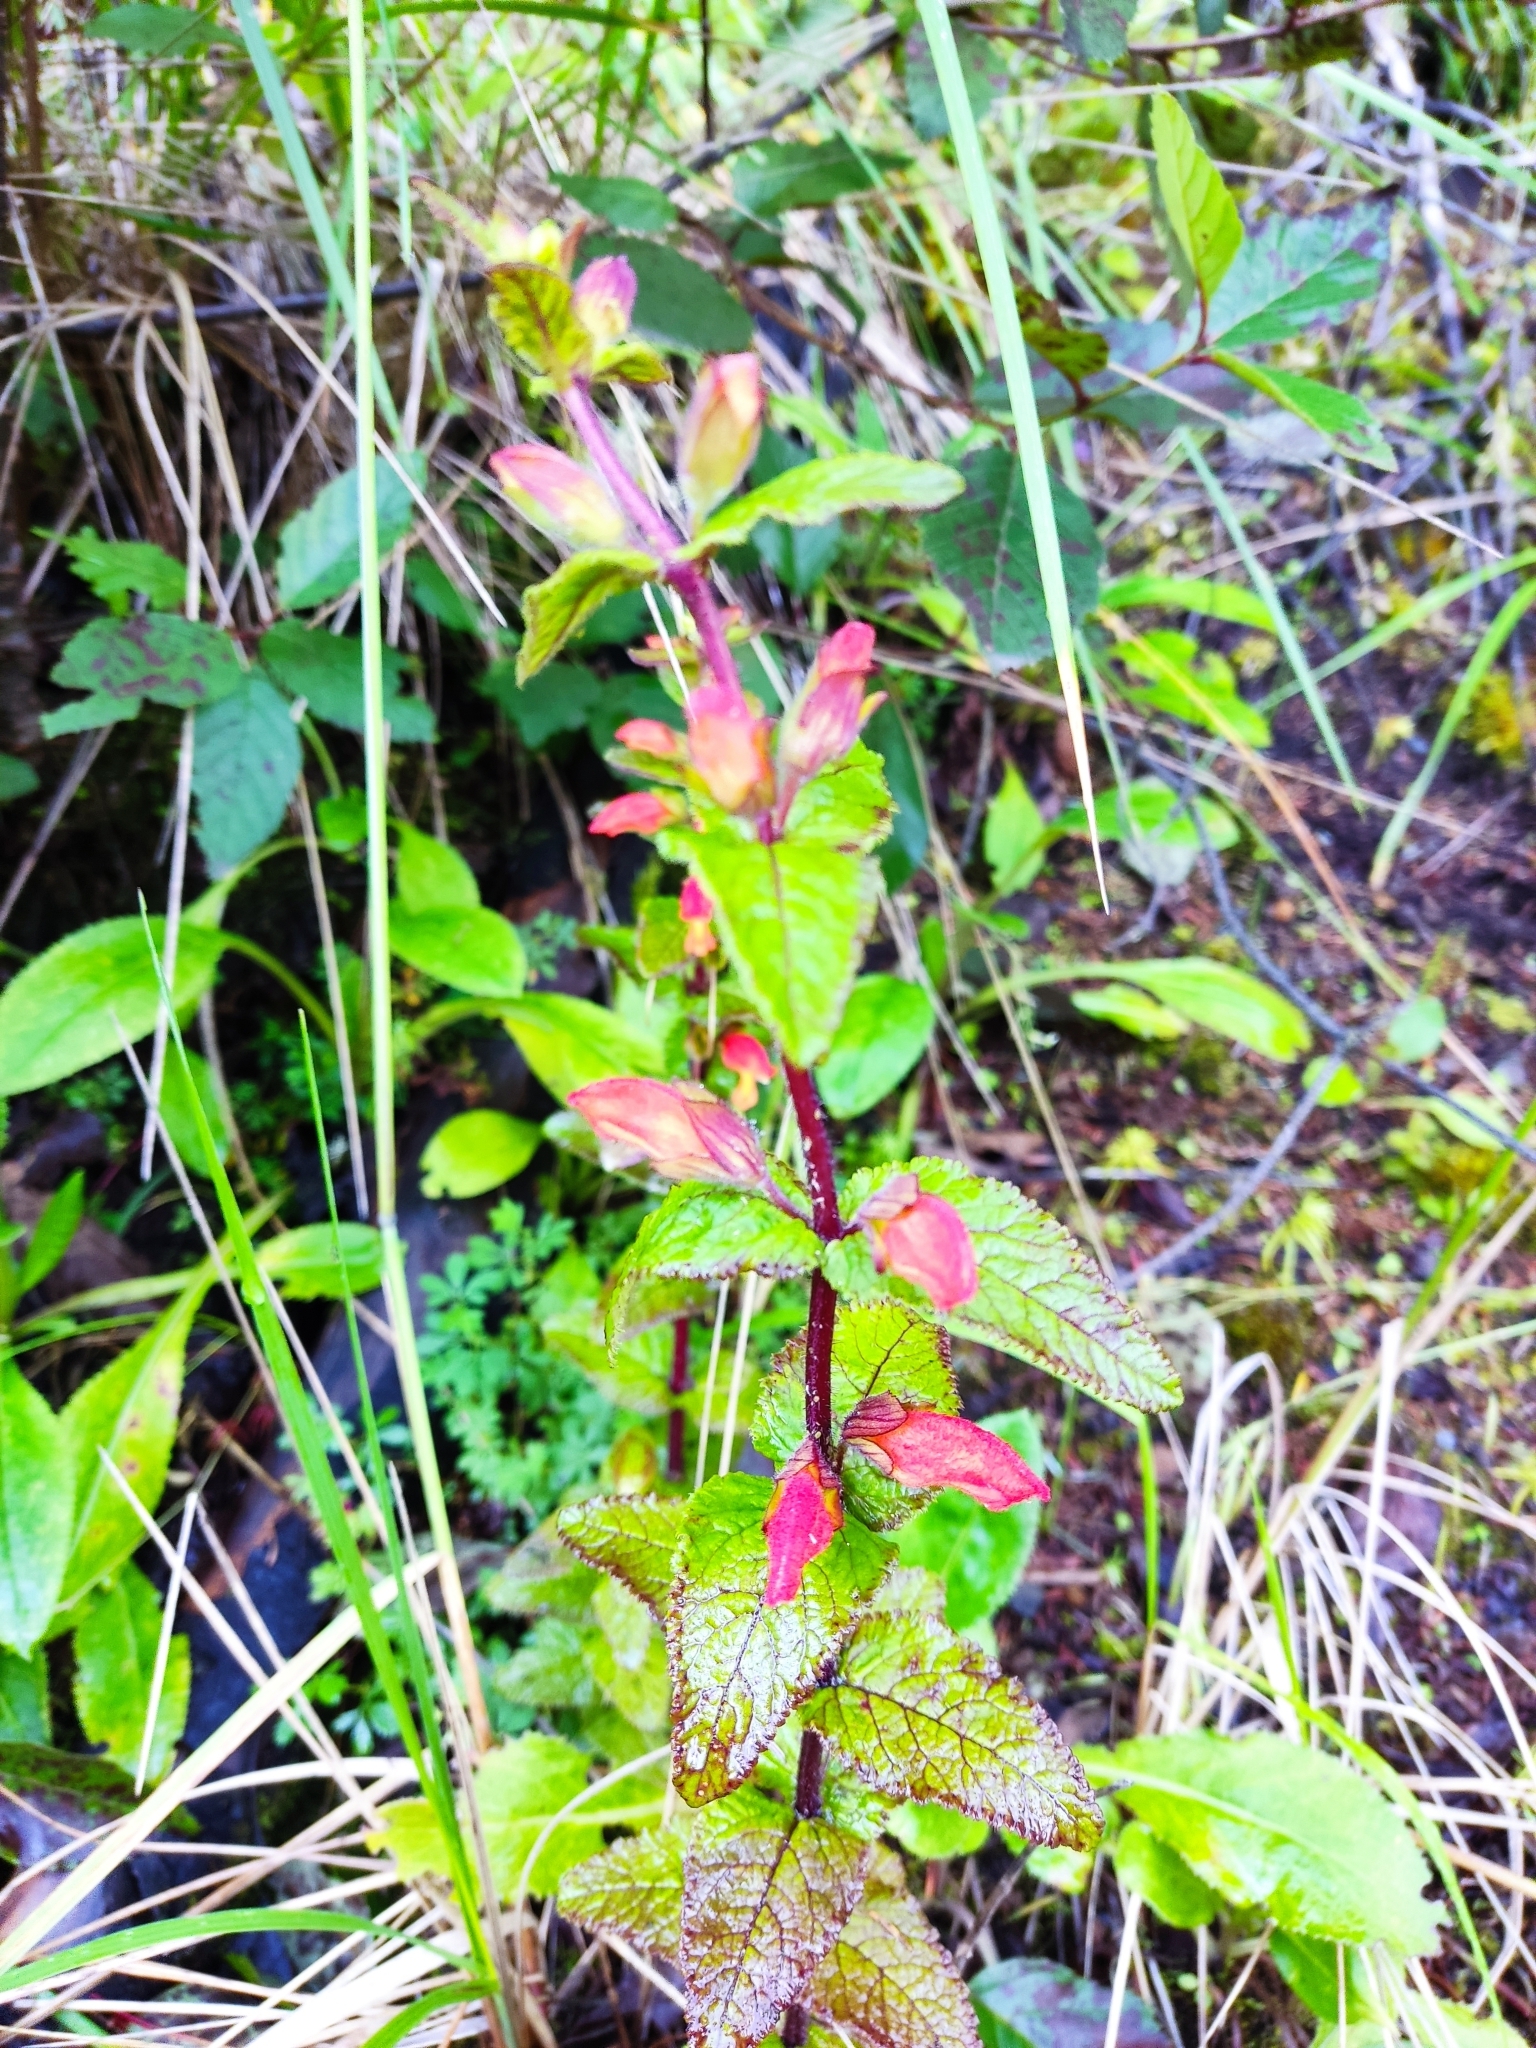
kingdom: Plantae
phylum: Tracheophyta
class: Magnoliopsida
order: Lamiales
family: Orobanchaceae
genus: Lamourouxia
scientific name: Lamourouxia macrantha
